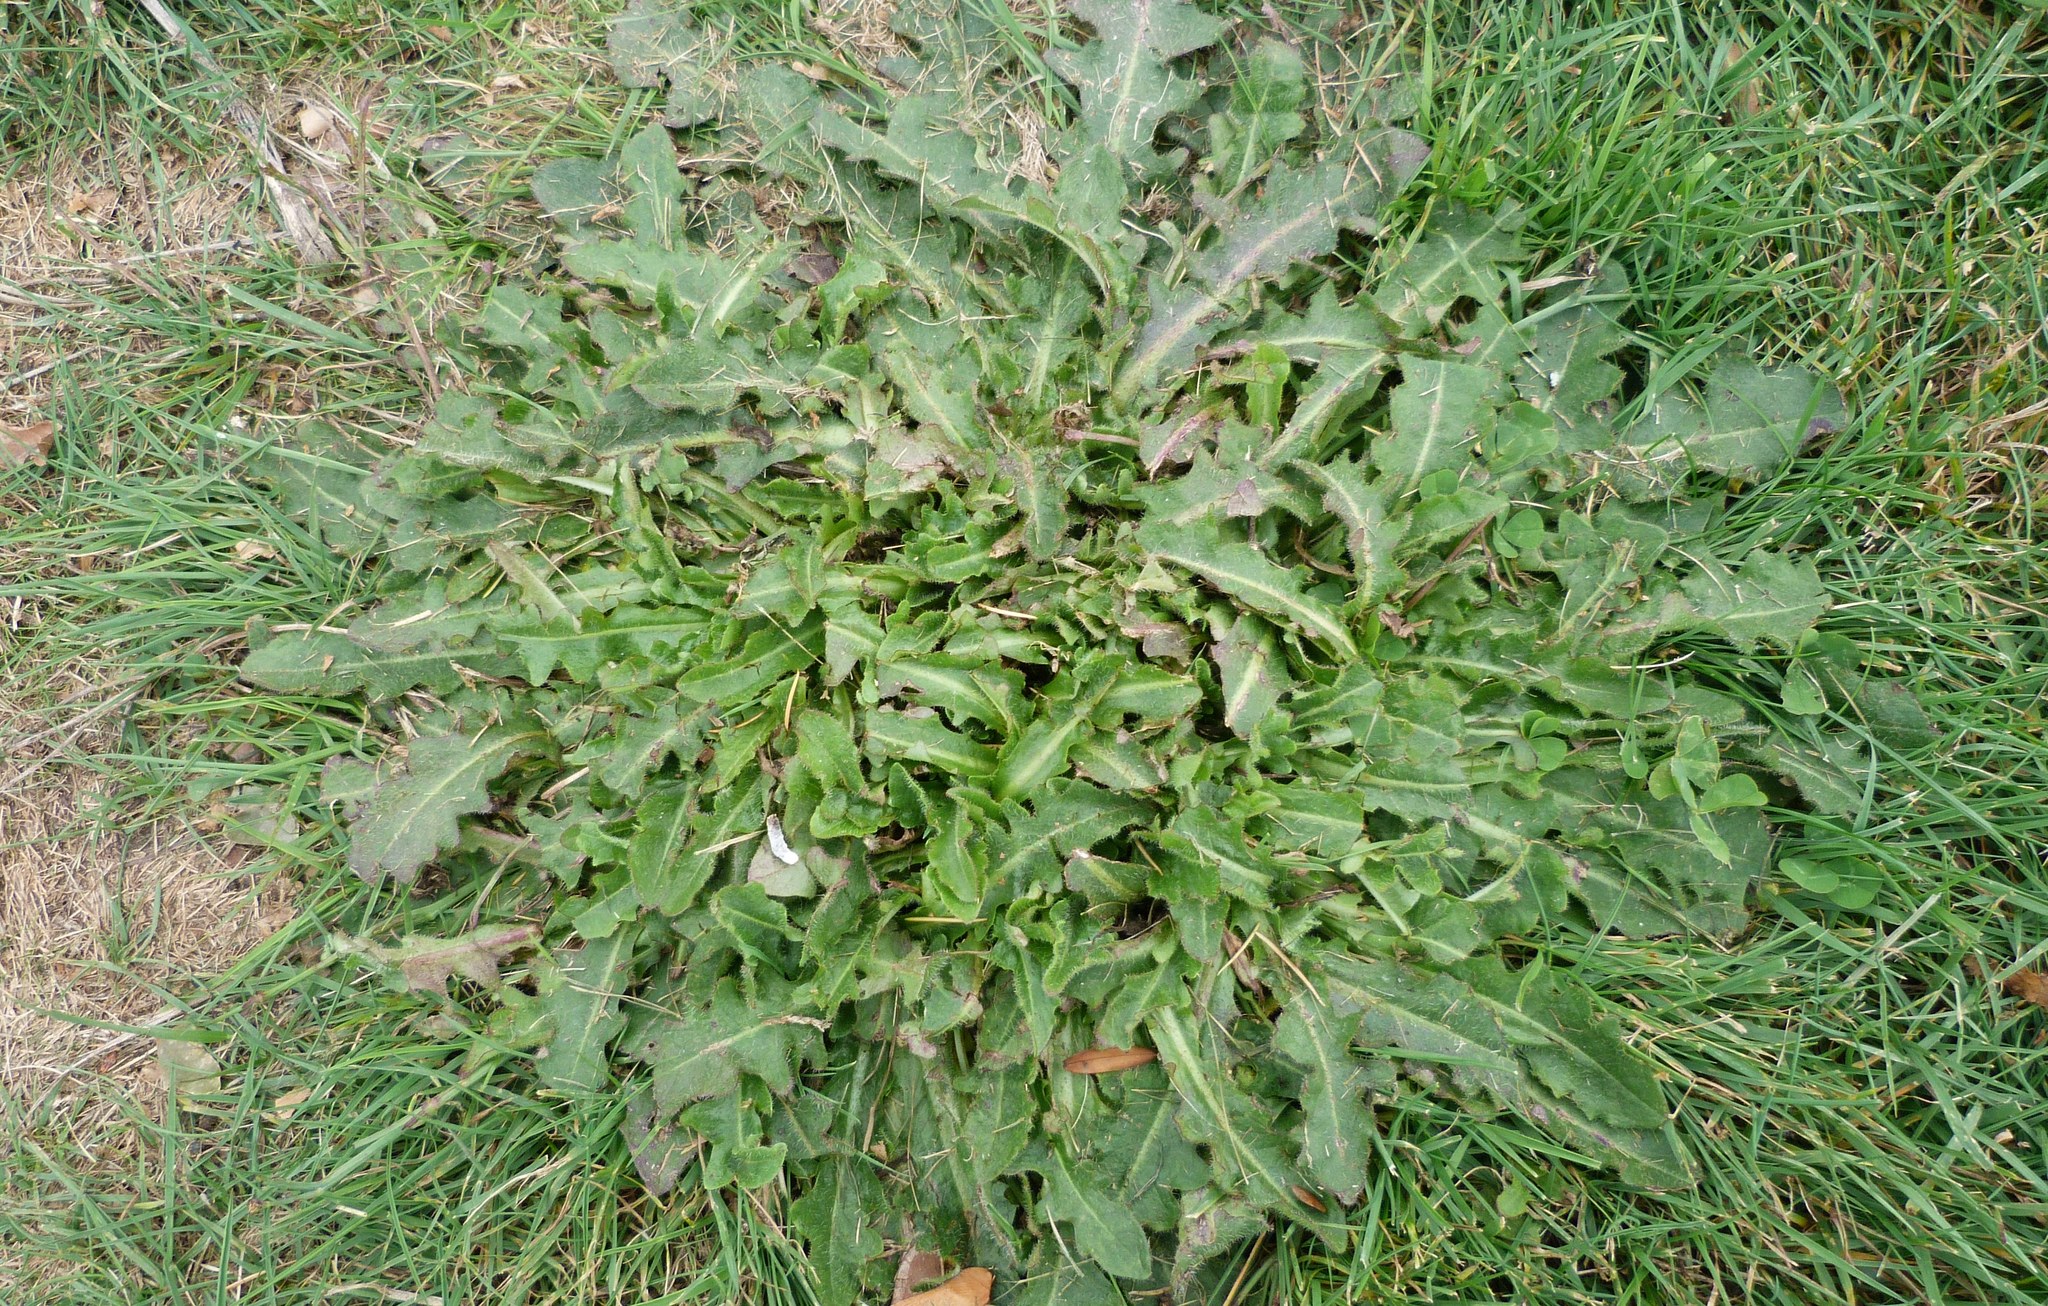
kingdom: Plantae
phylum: Tracheophyta
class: Magnoliopsida
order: Asterales
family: Asteraceae
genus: Hypochaeris
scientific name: Hypochaeris radicata
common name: Flatweed
